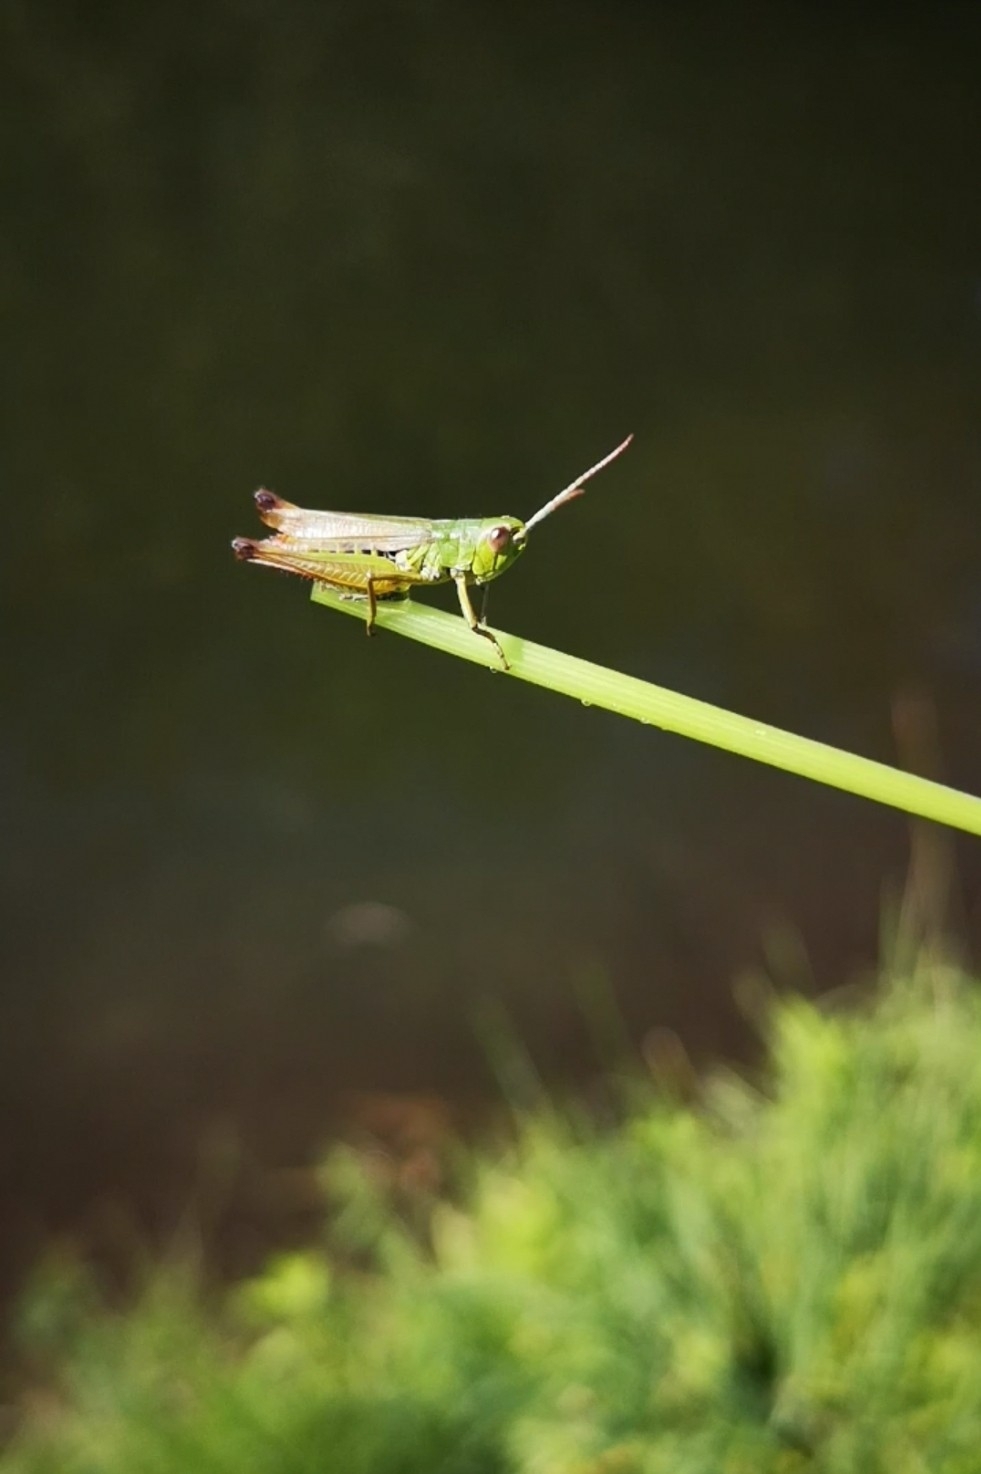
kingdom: Animalia
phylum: Arthropoda
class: Insecta
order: Orthoptera
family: Acrididae
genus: Pseudochorthippus
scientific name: Pseudochorthippus parallelus
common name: Meadow grasshopper
